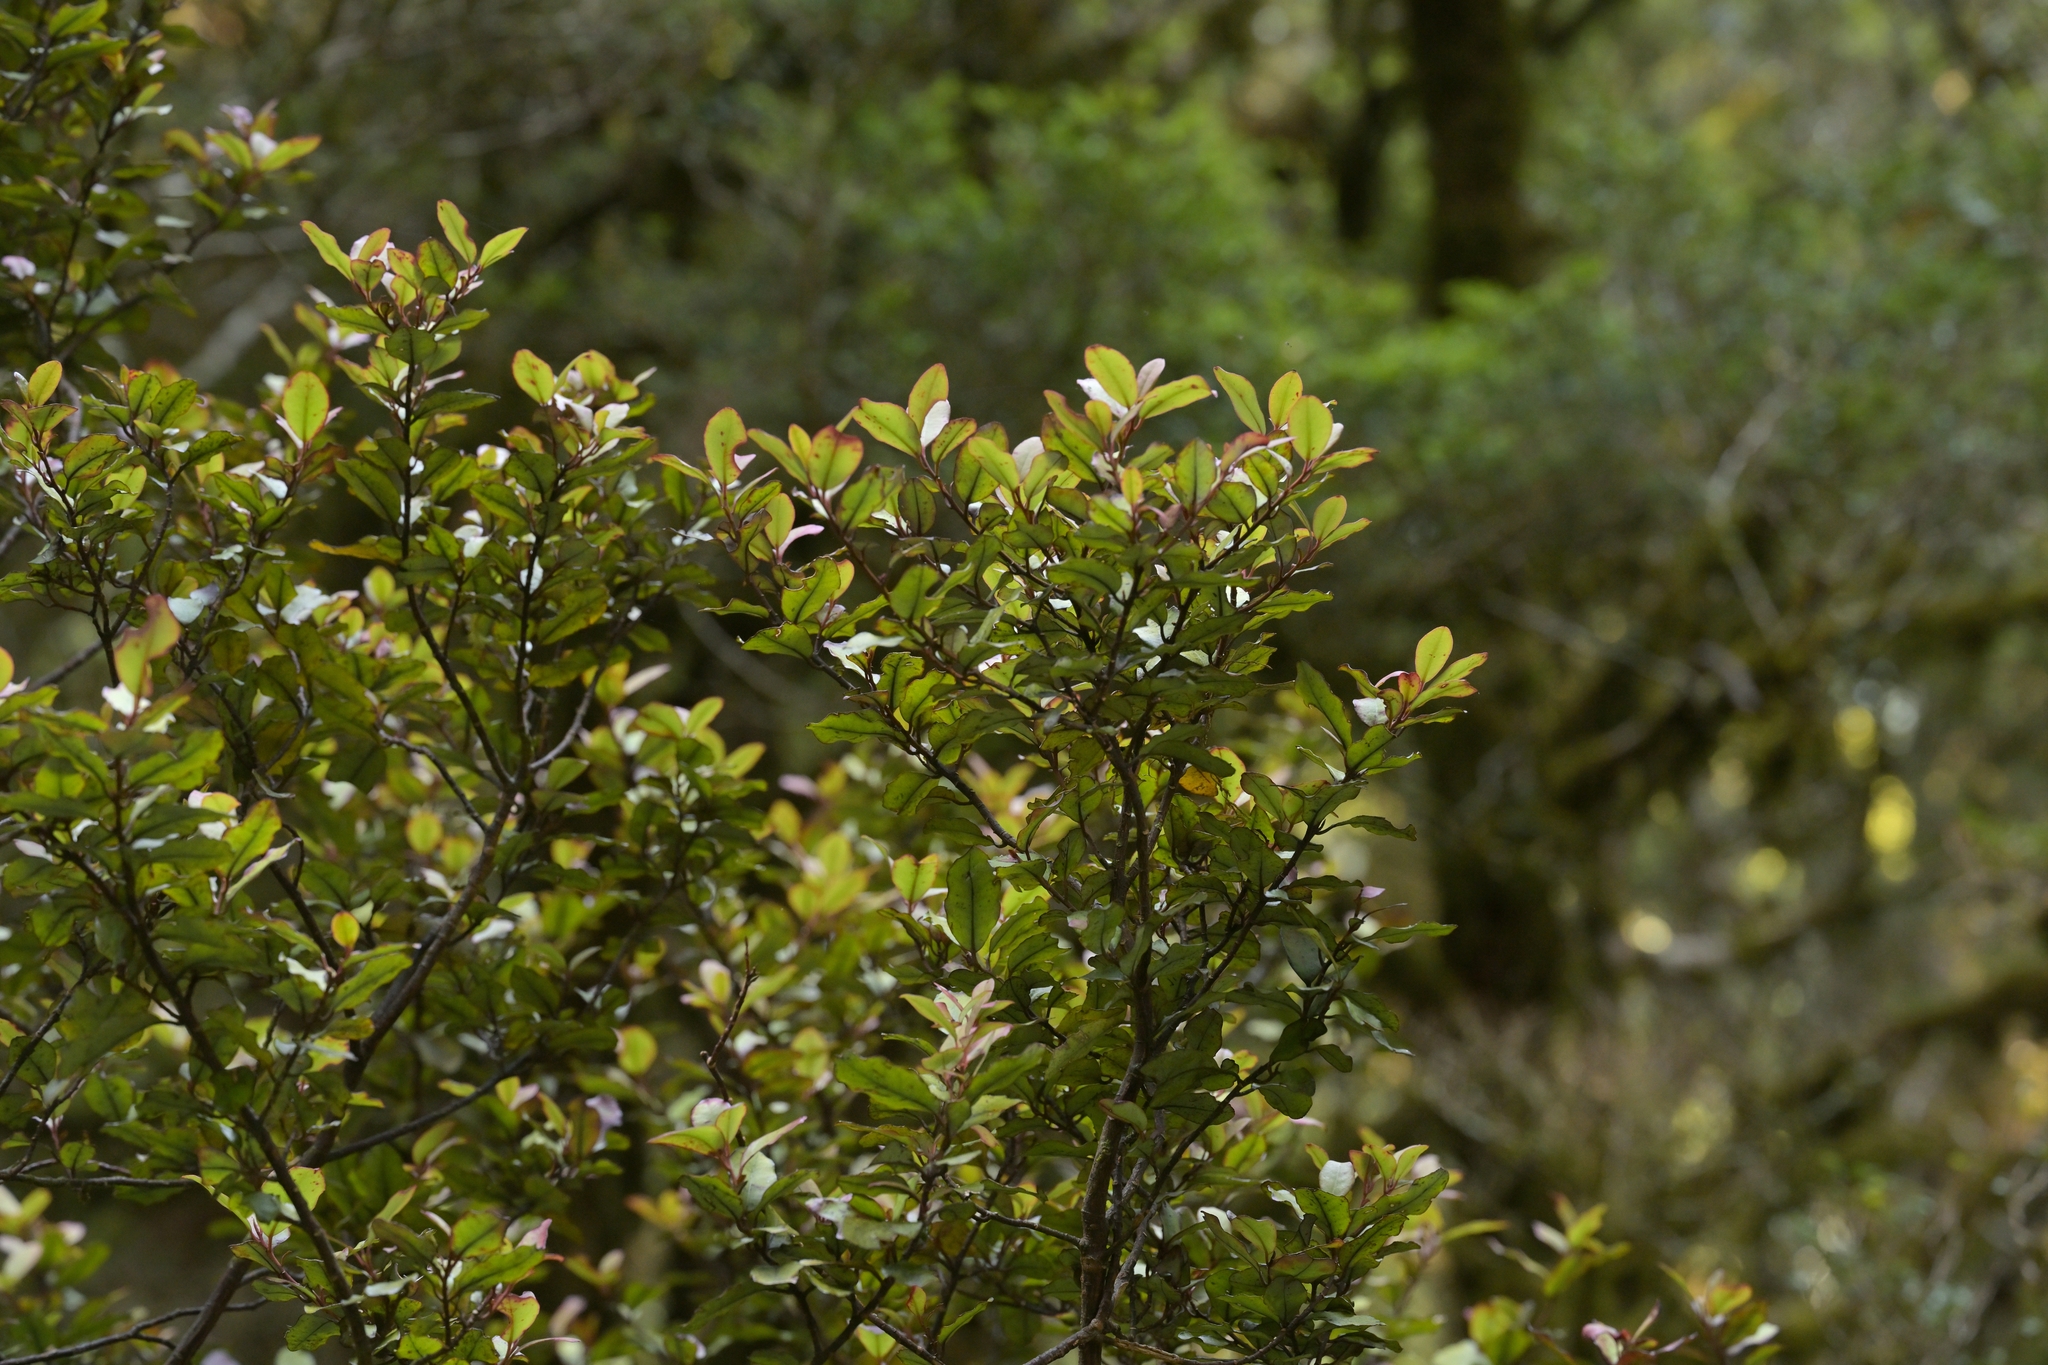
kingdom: Plantae
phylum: Tracheophyta
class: Magnoliopsida
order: Canellales
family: Winteraceae
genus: Pseudowintera
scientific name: Pseudowintera colorata
